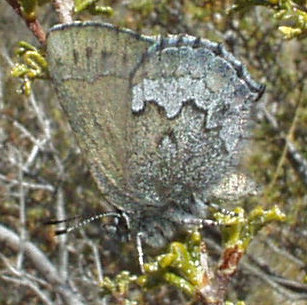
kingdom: Animalia
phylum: Arthropoda
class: Insecta
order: Lepidoptera
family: Lycaenidae
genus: Callophrys
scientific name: Callophrys fotis
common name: Desert elfin
